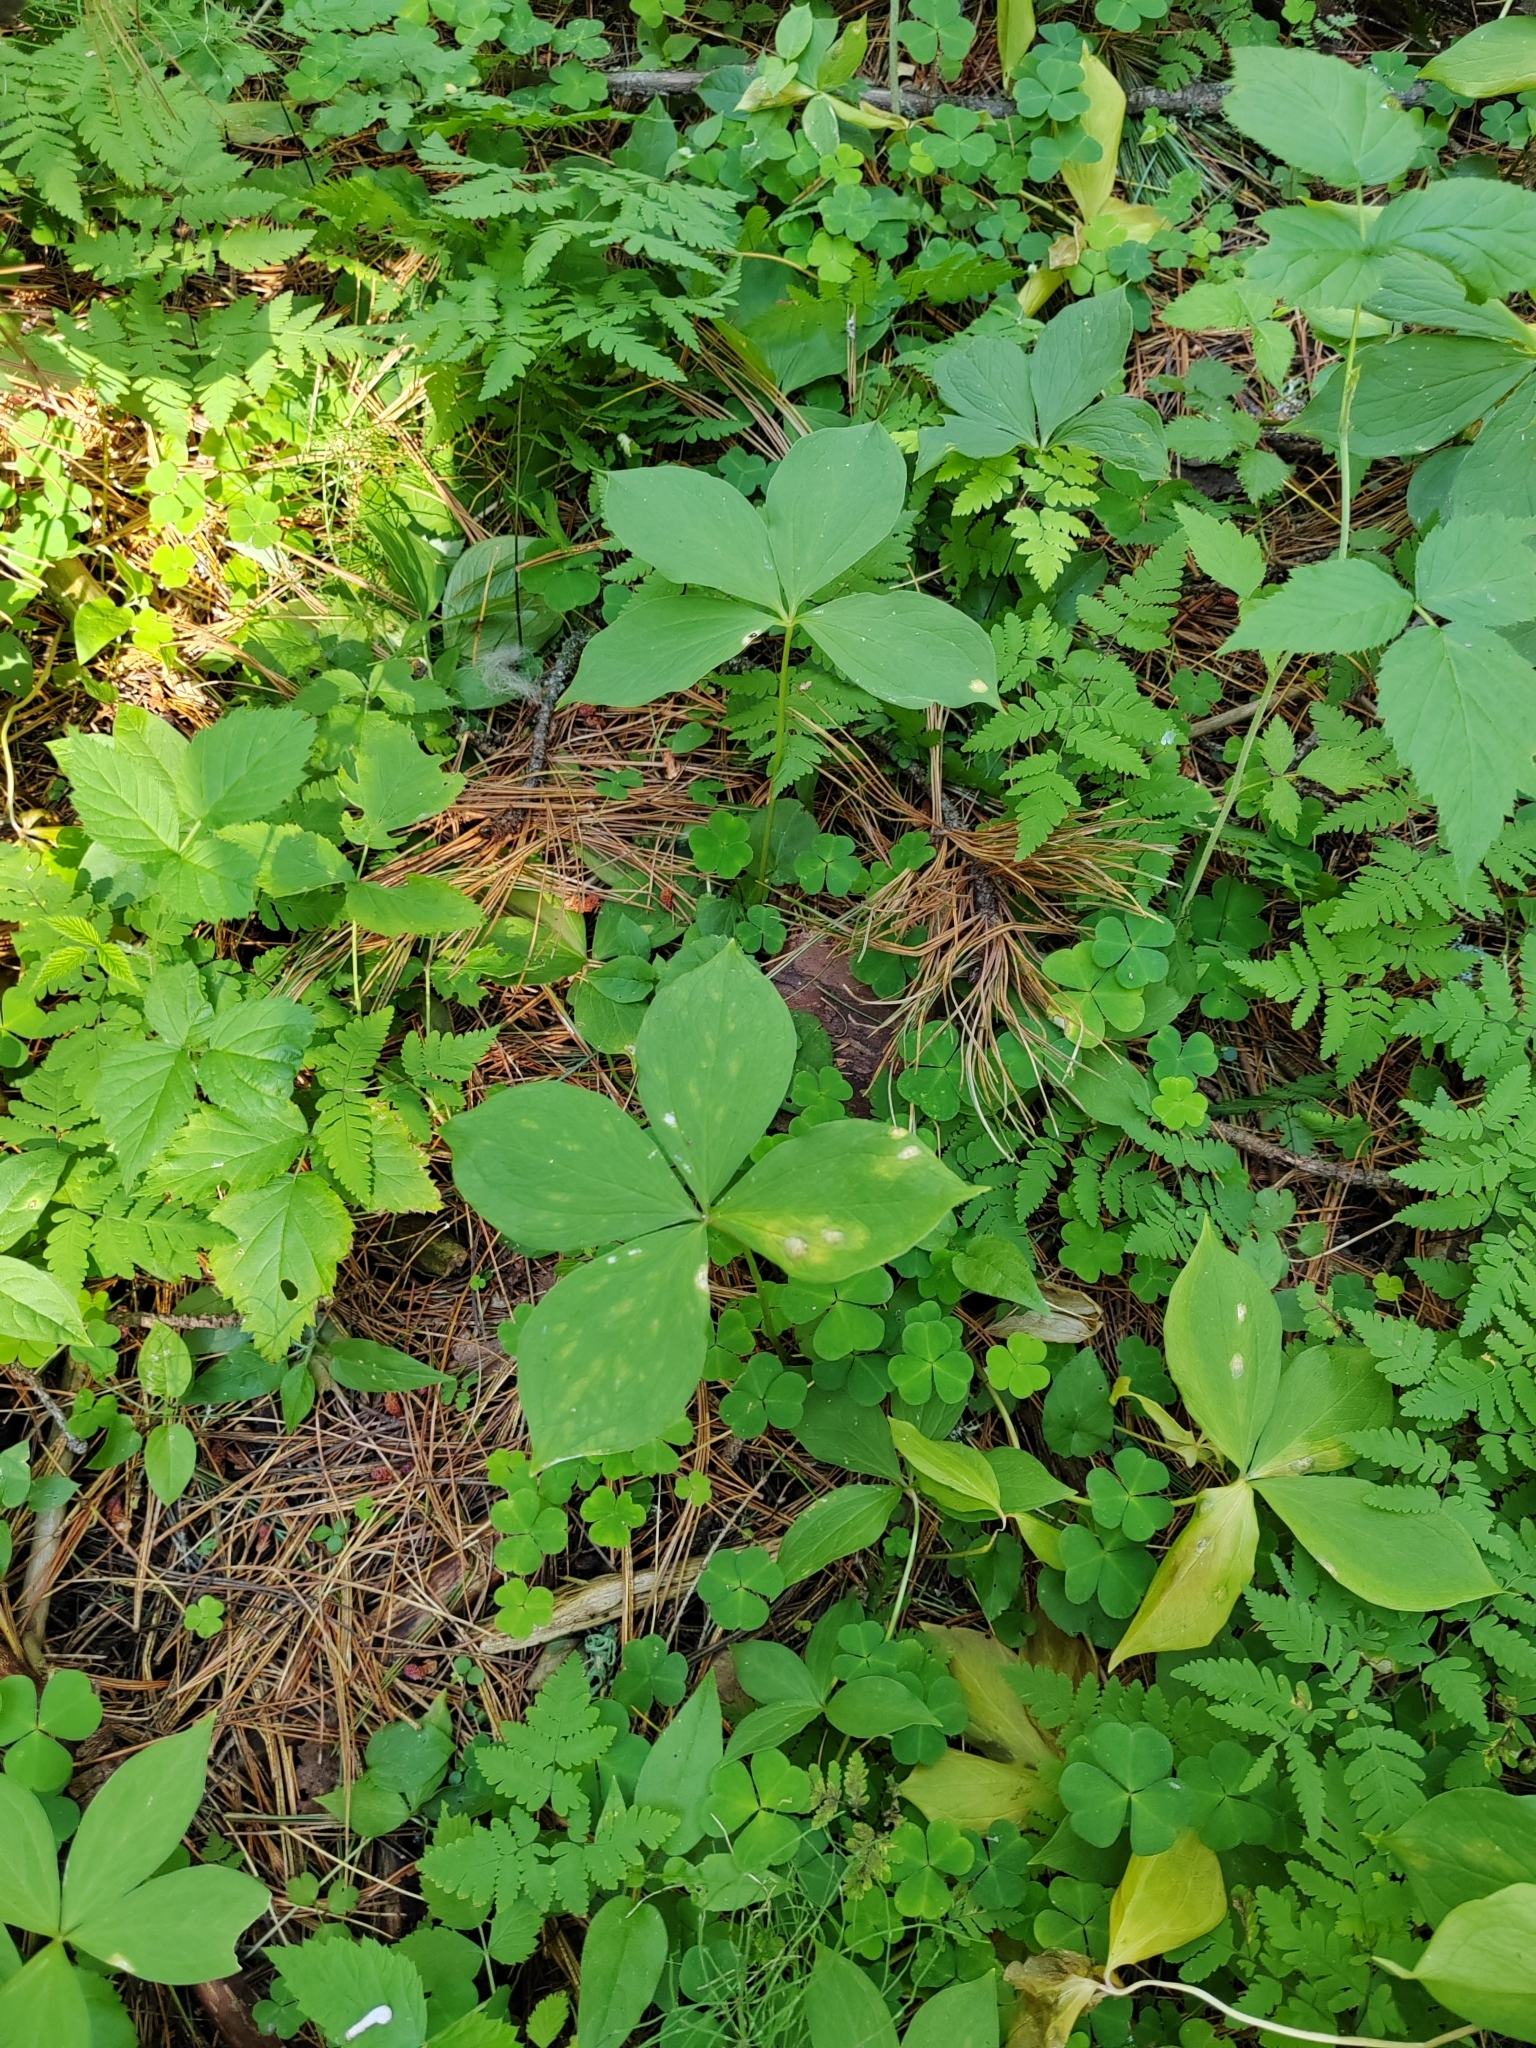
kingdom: Plantae
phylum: Tracheophyta
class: Liliopsida
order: Liliales
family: Melanthiaceae
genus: Paris
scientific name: Paris quadrifolia
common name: Herb-paris
